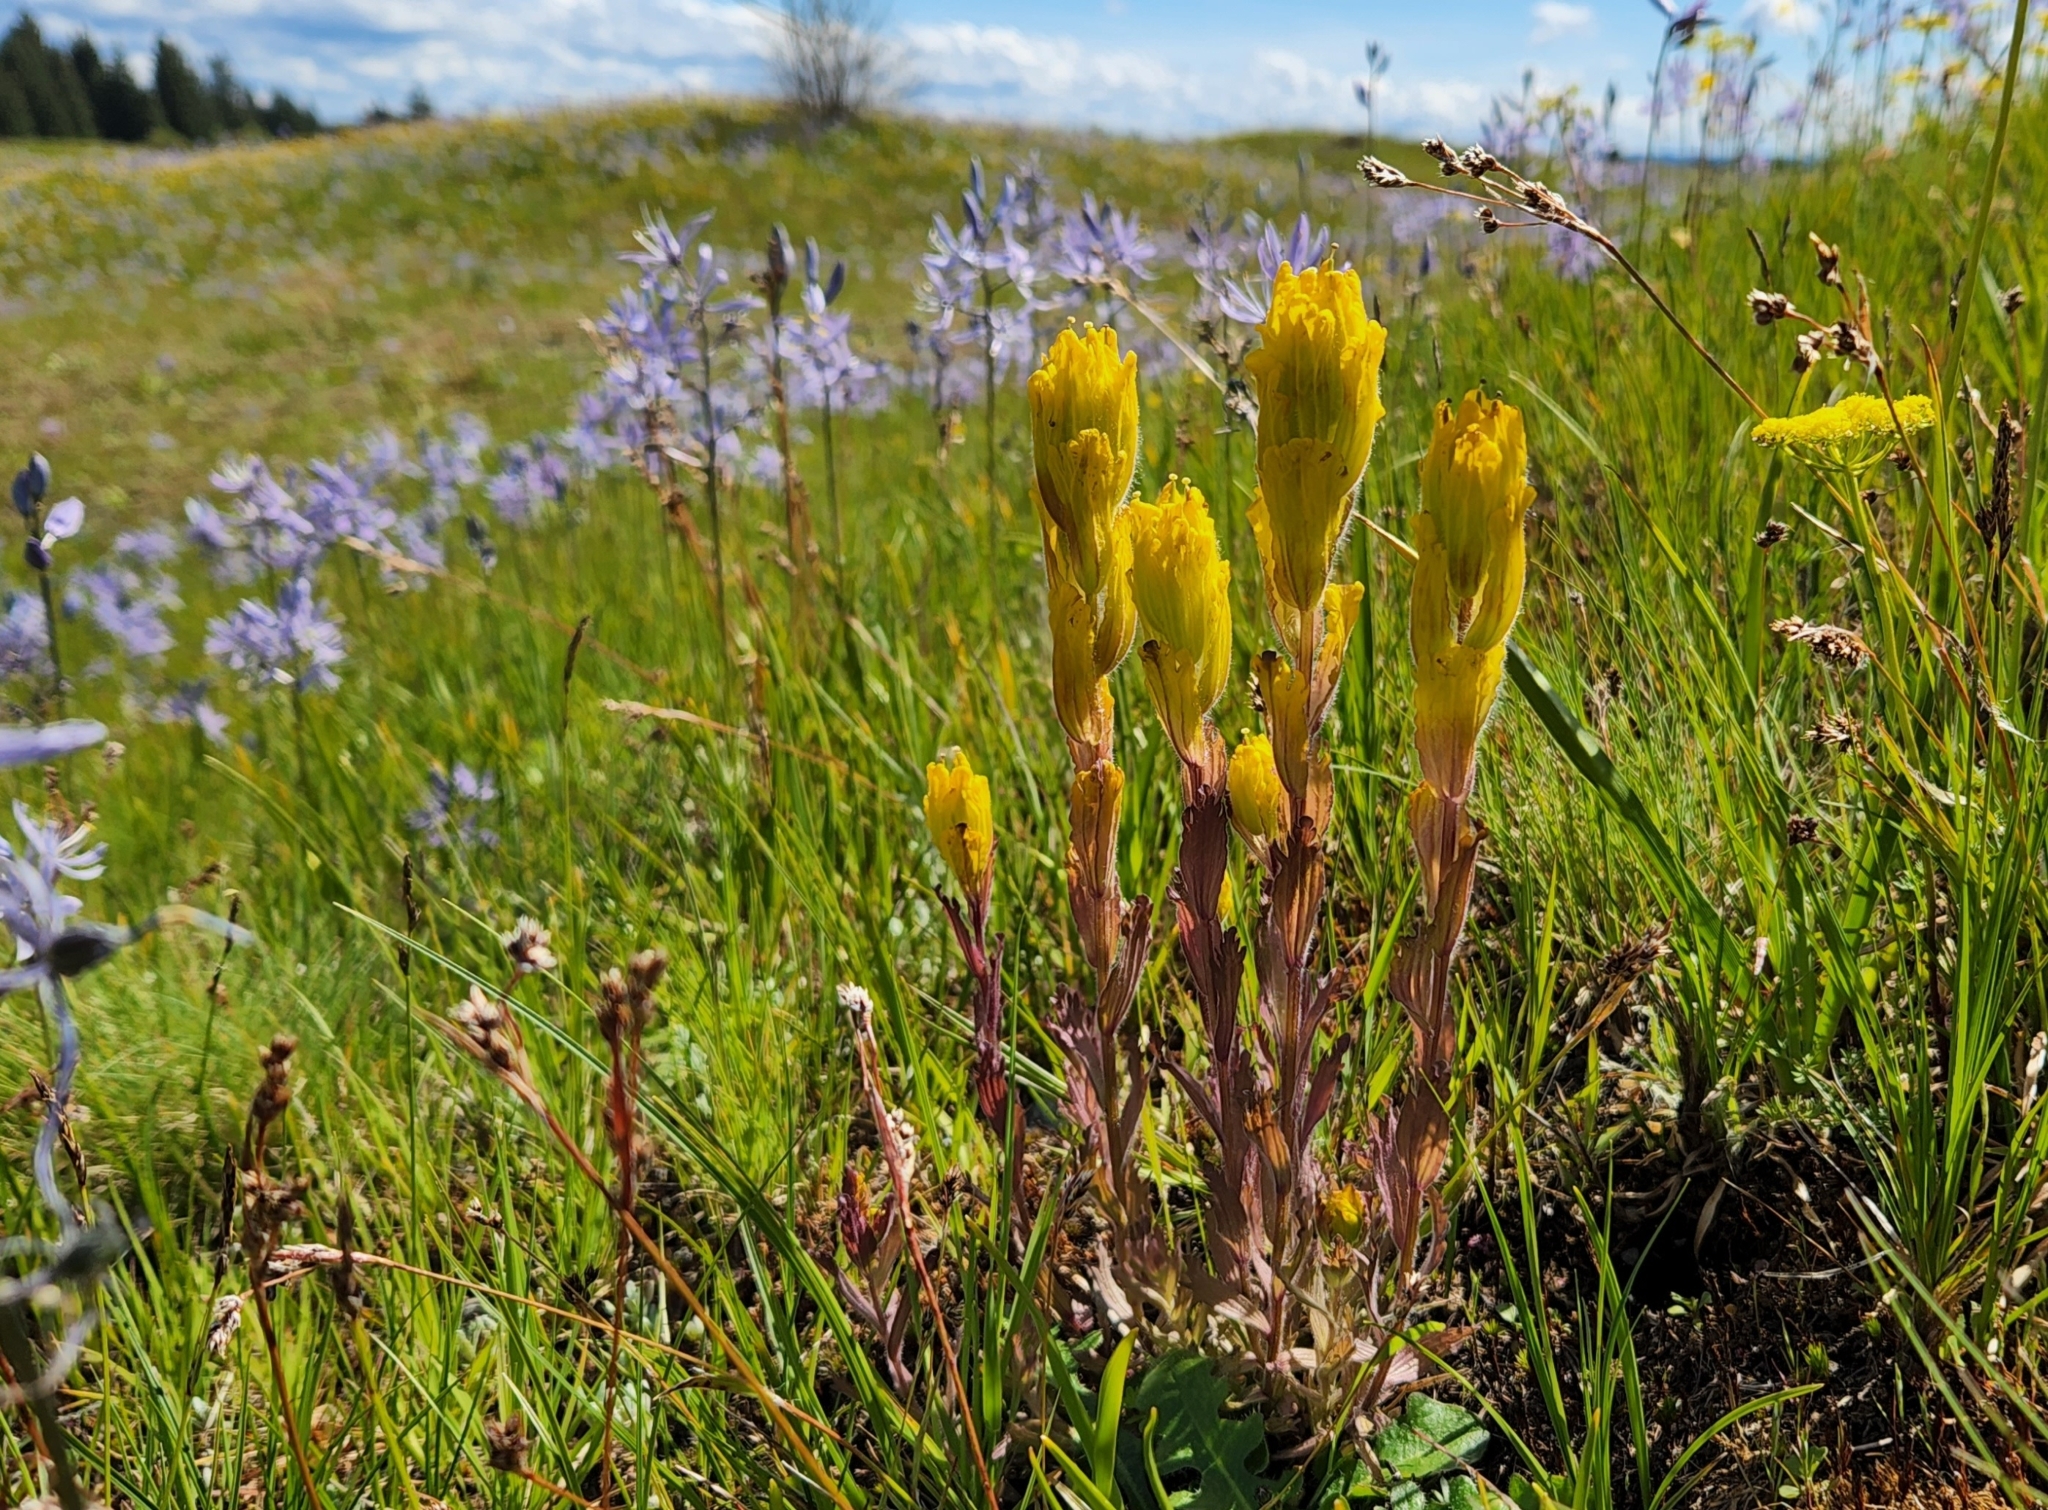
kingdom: Plantae
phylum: Tracheophyta
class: Magnoliopsida
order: Lamiales
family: Orobanchaceae
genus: Castilleja
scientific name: Castilleja levisecta
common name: Golden paintbrush
